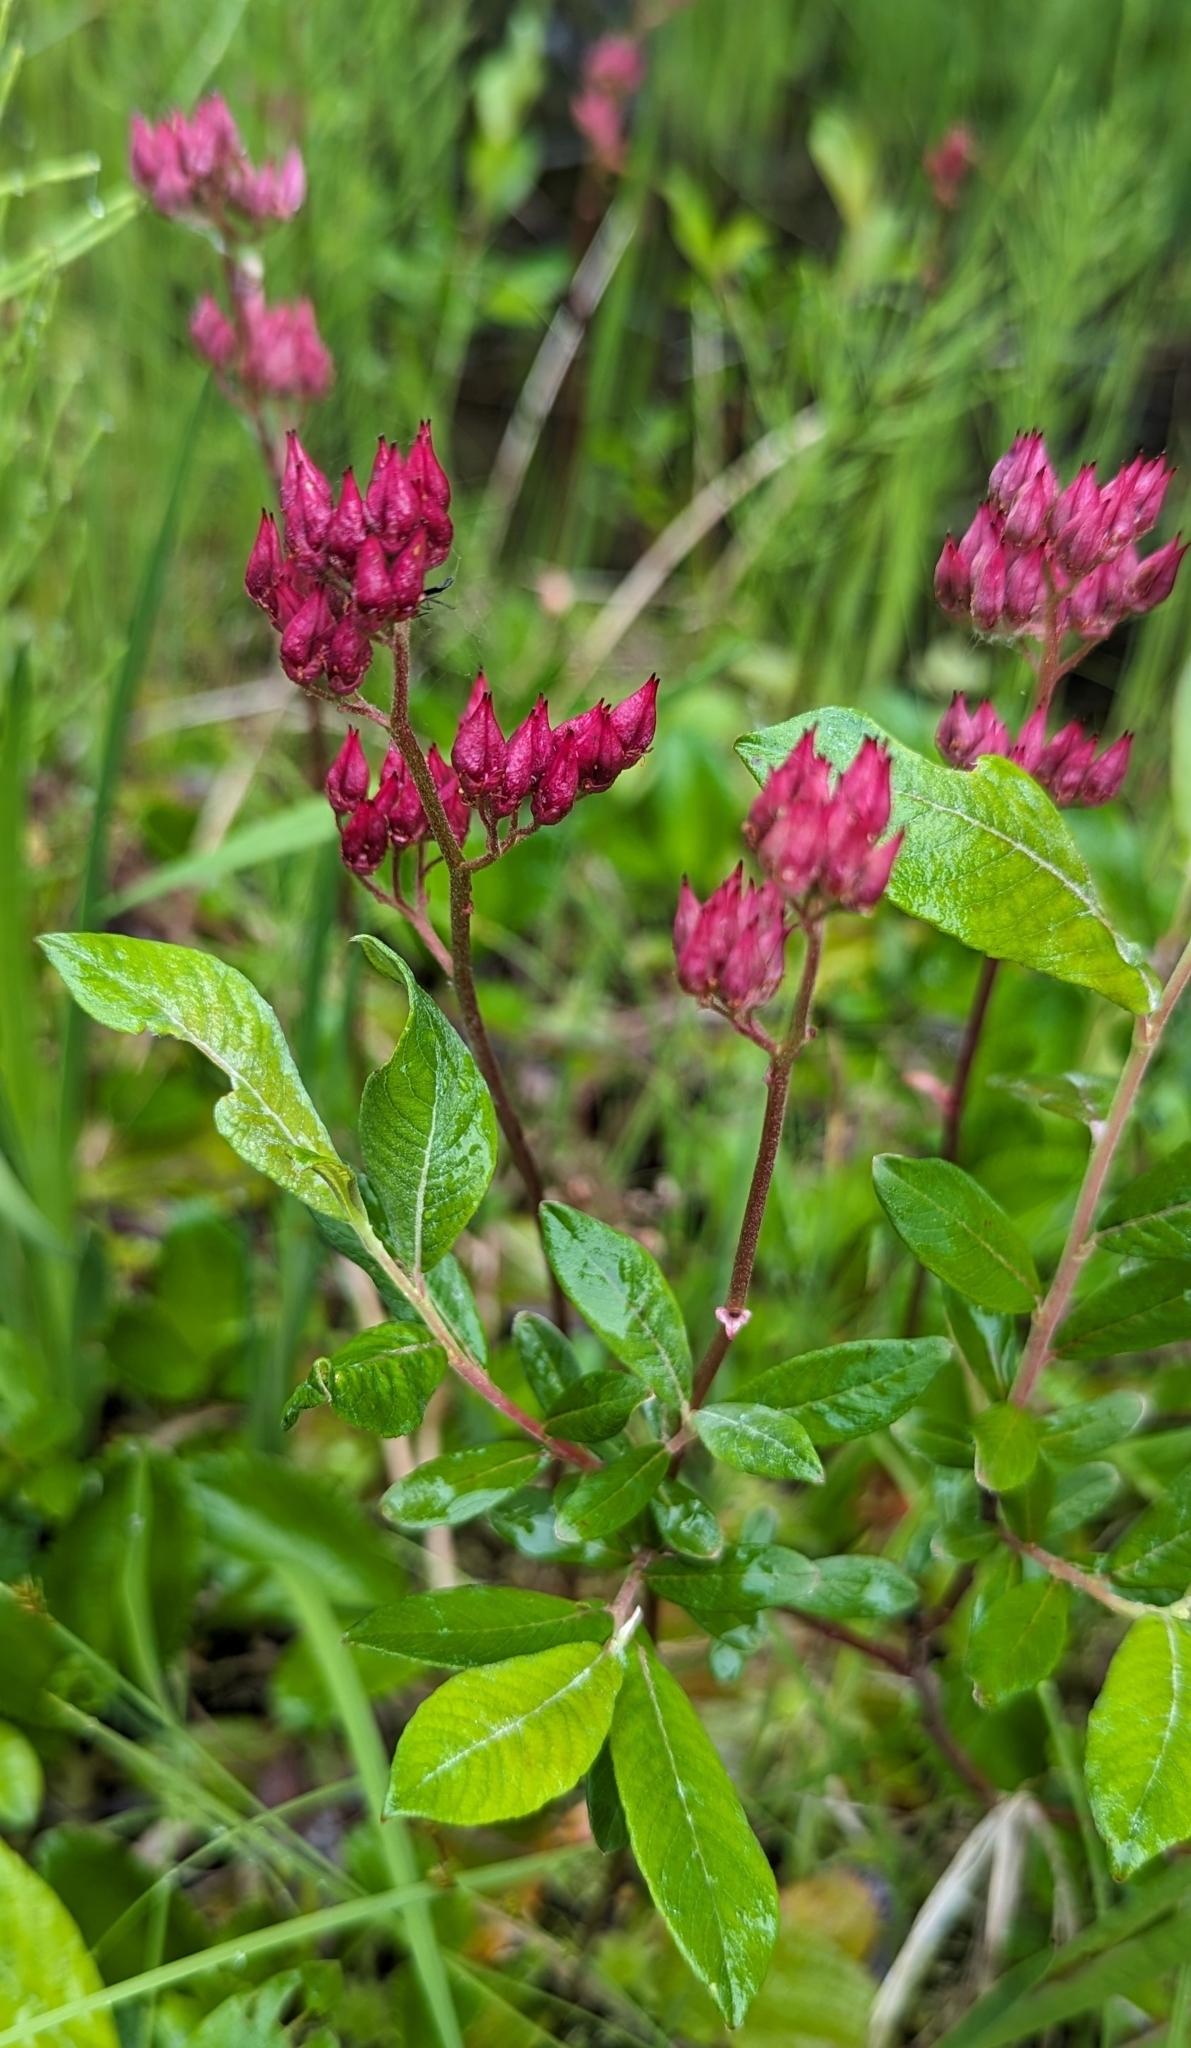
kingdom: Plantae
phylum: Tracheophyta
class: Magnoliopsida
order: Saxifragales
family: Saxifragaceae
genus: Leptarrhena
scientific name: Leptarrhena pyrolifolia
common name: Leatherleaf-saxifrage
